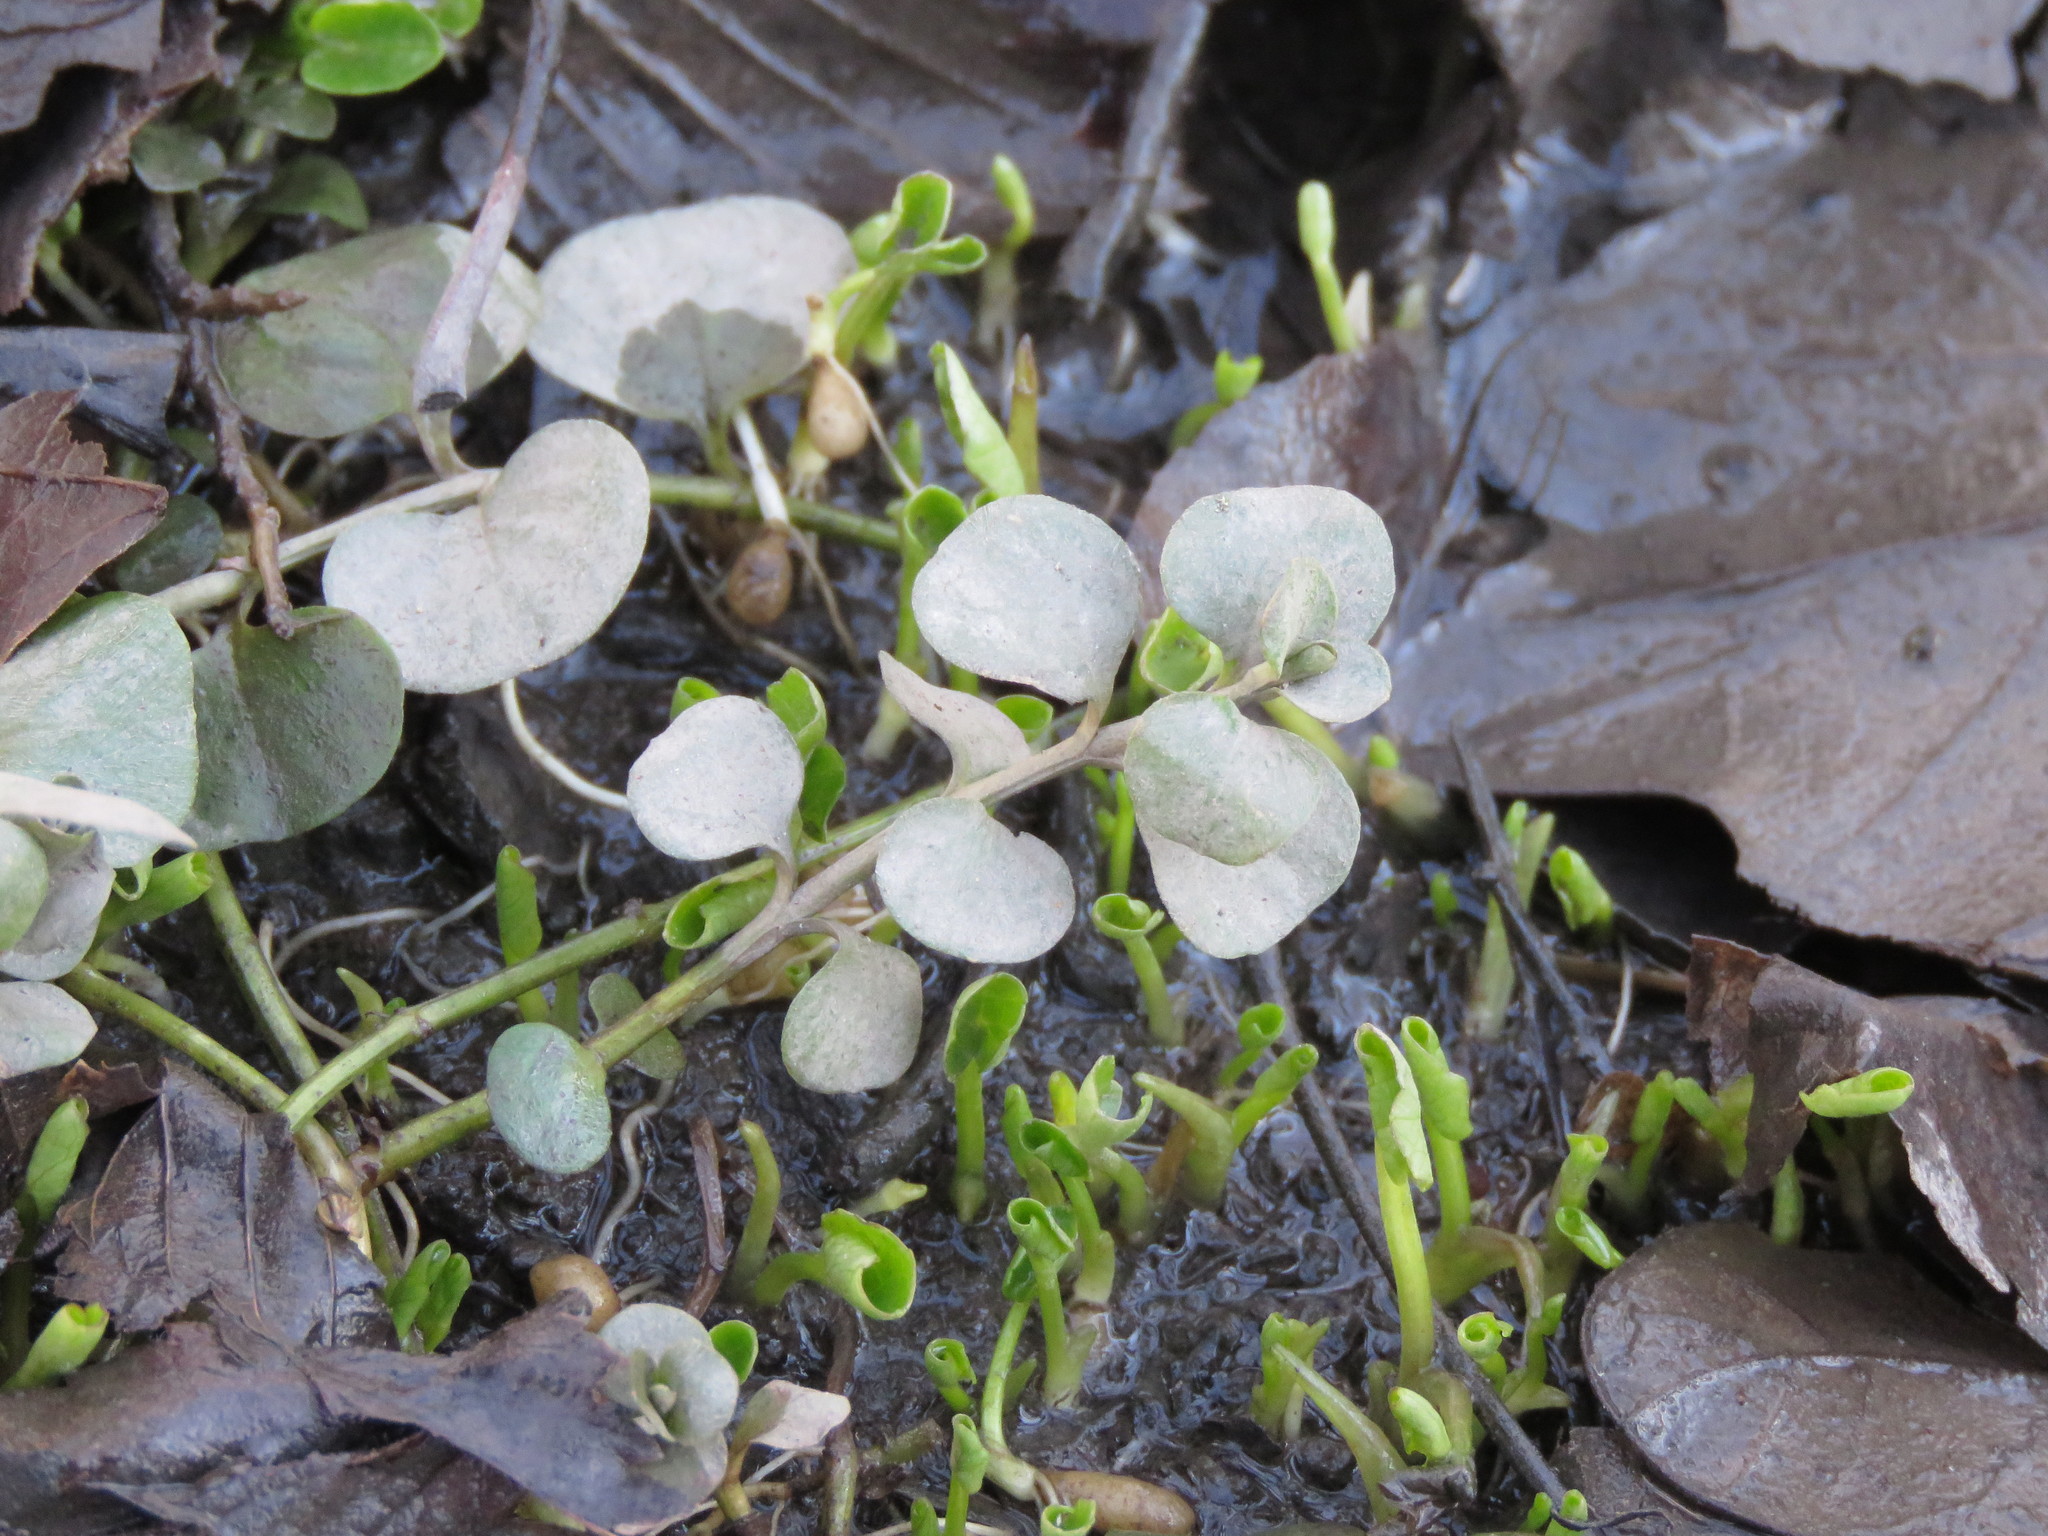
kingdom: Plantae
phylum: Tracheophyta
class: Magnoliopsida
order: Ericales
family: Primulaceae
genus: Lysimachia
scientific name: Lysimachia nummularia
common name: Moneywort
